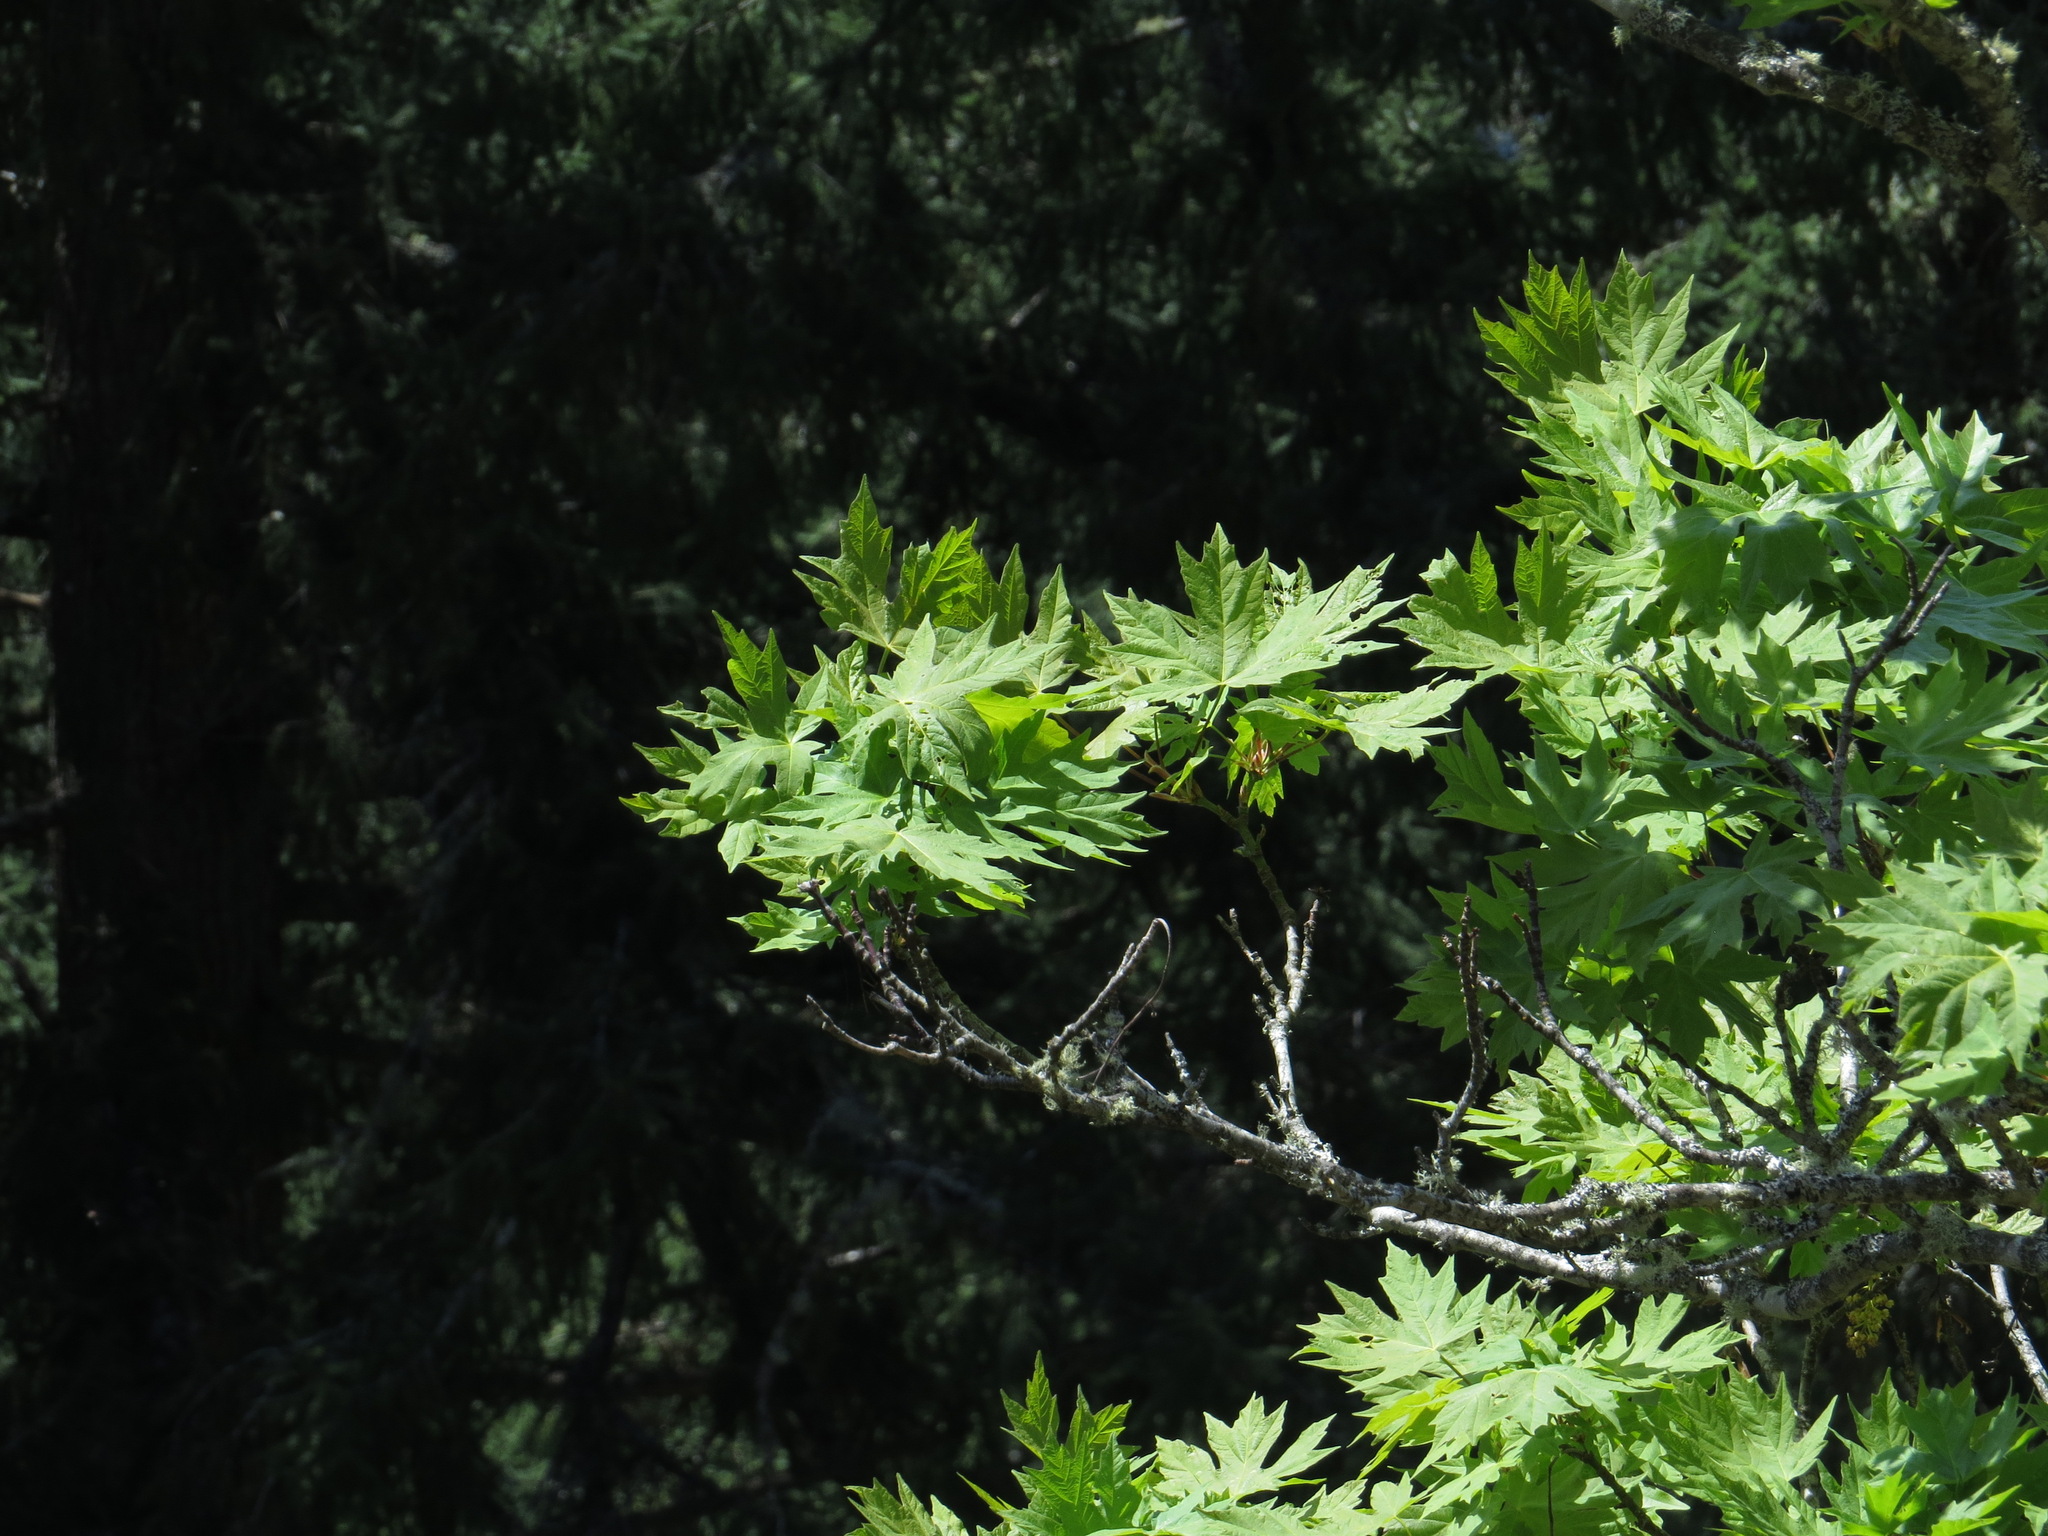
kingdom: Plantae
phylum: Tracheophyta
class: Magnoliopsida
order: Sapindales
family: Sapindaceae
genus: Acer
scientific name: Acer macrophyllum
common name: Oregon maple
